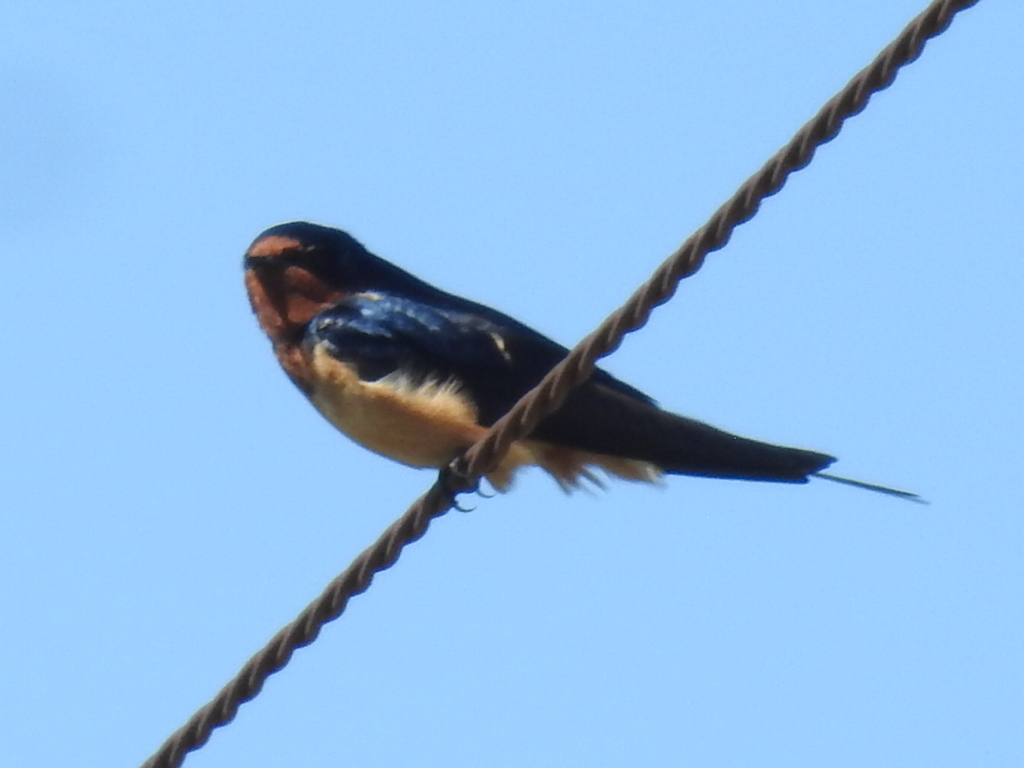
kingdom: Animalia
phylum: Chordata
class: Aves
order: Passeriformes
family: Hirundinidae
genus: Hirundo
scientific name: Hirundo rustica
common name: Barn swallow
